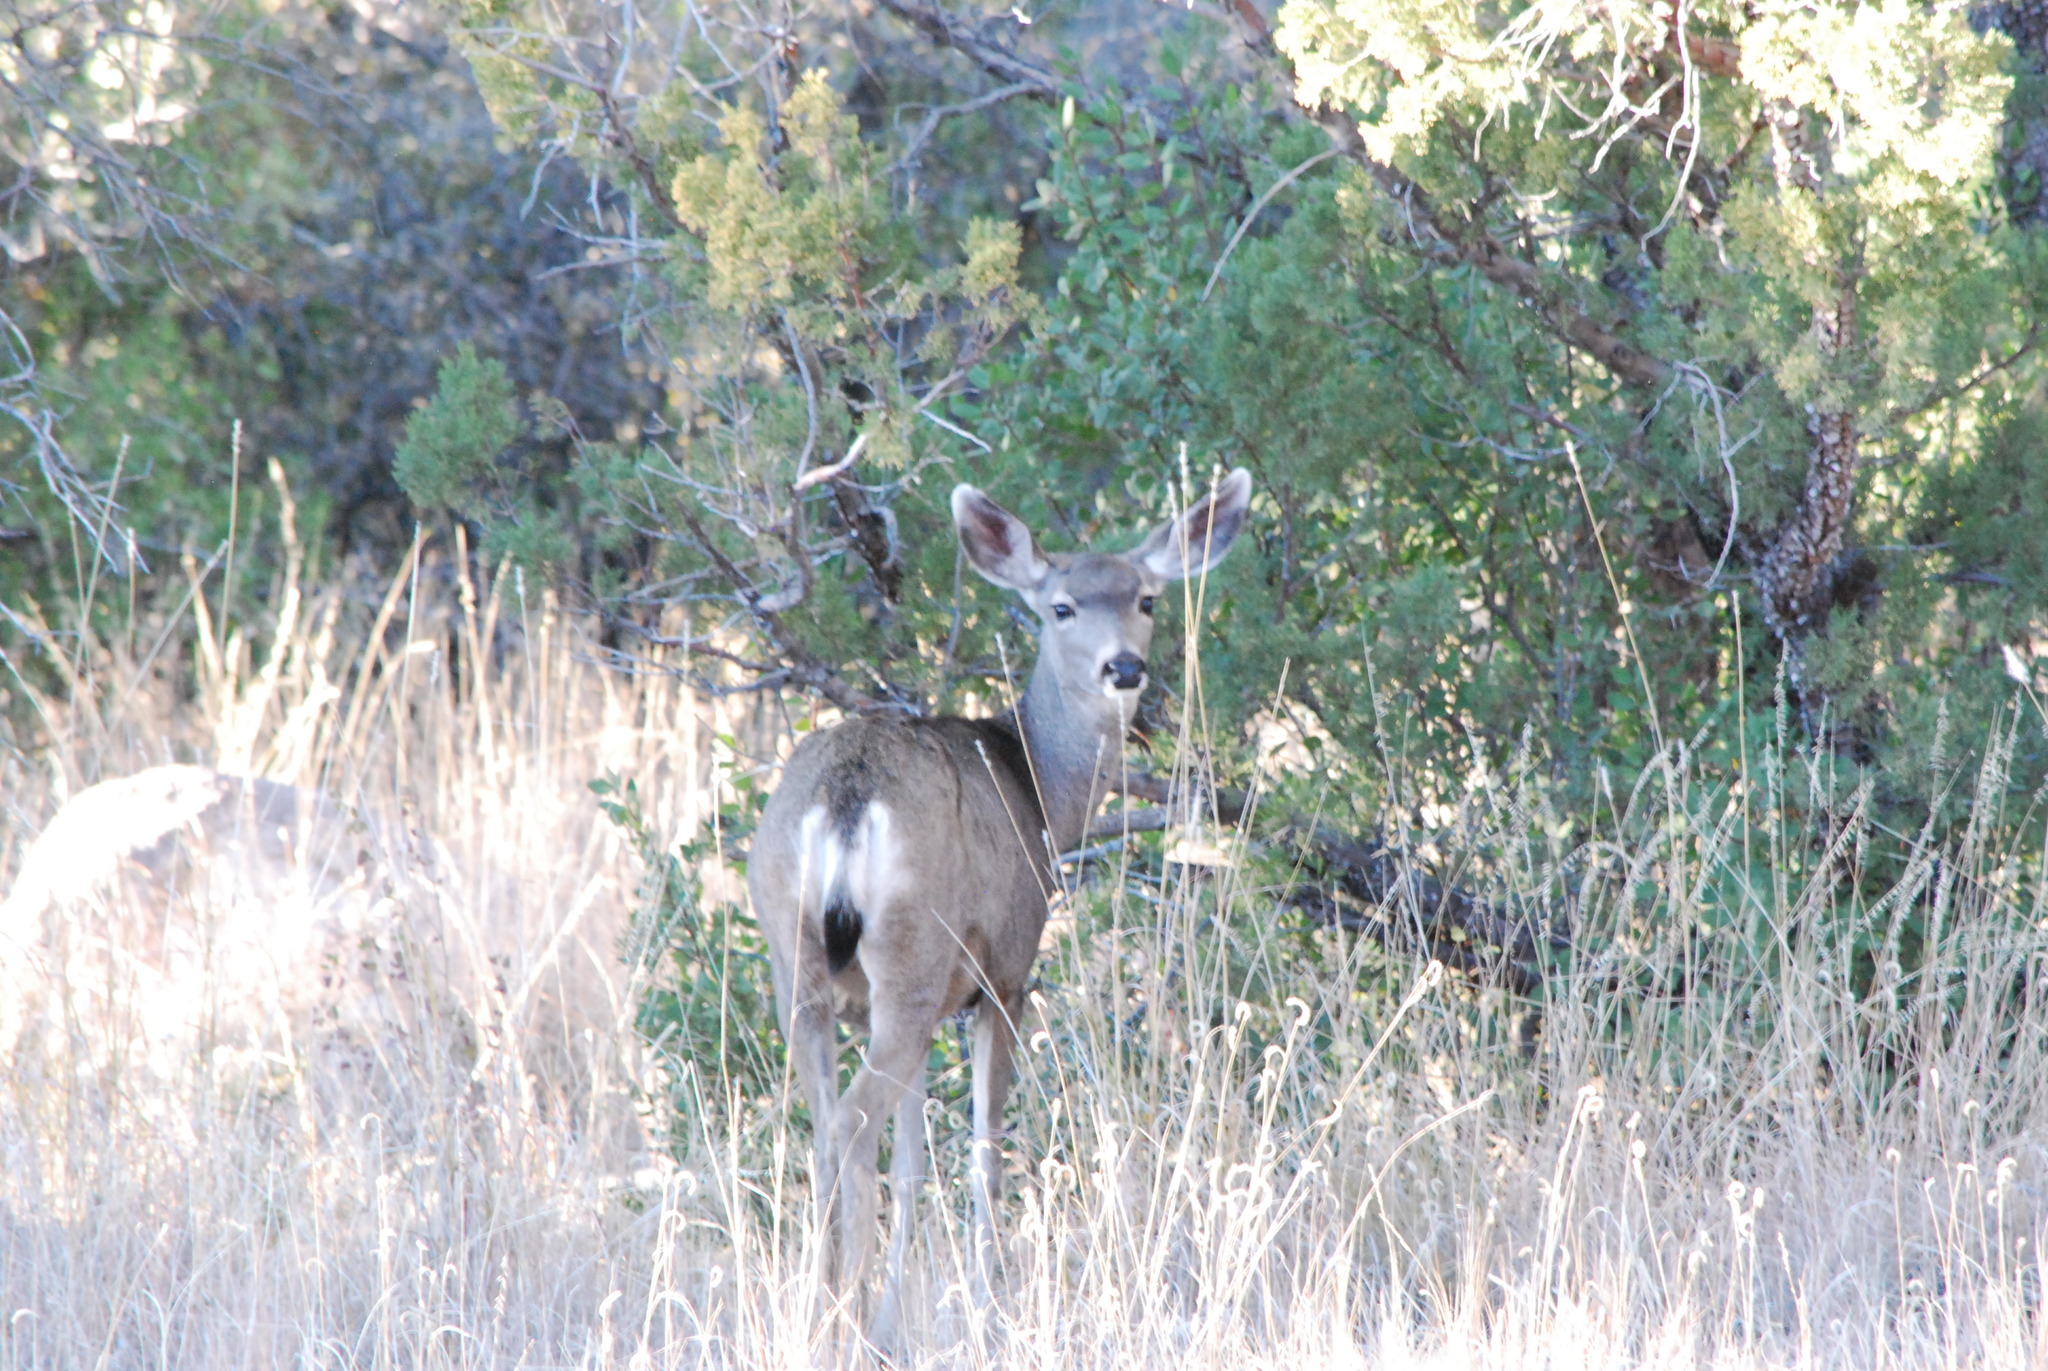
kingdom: Animalia
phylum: Chordata
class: Mammalia
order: Artiodactyla
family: Cervidae
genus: Odocoileus
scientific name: Odocoileus hemionus
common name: Mule deer
